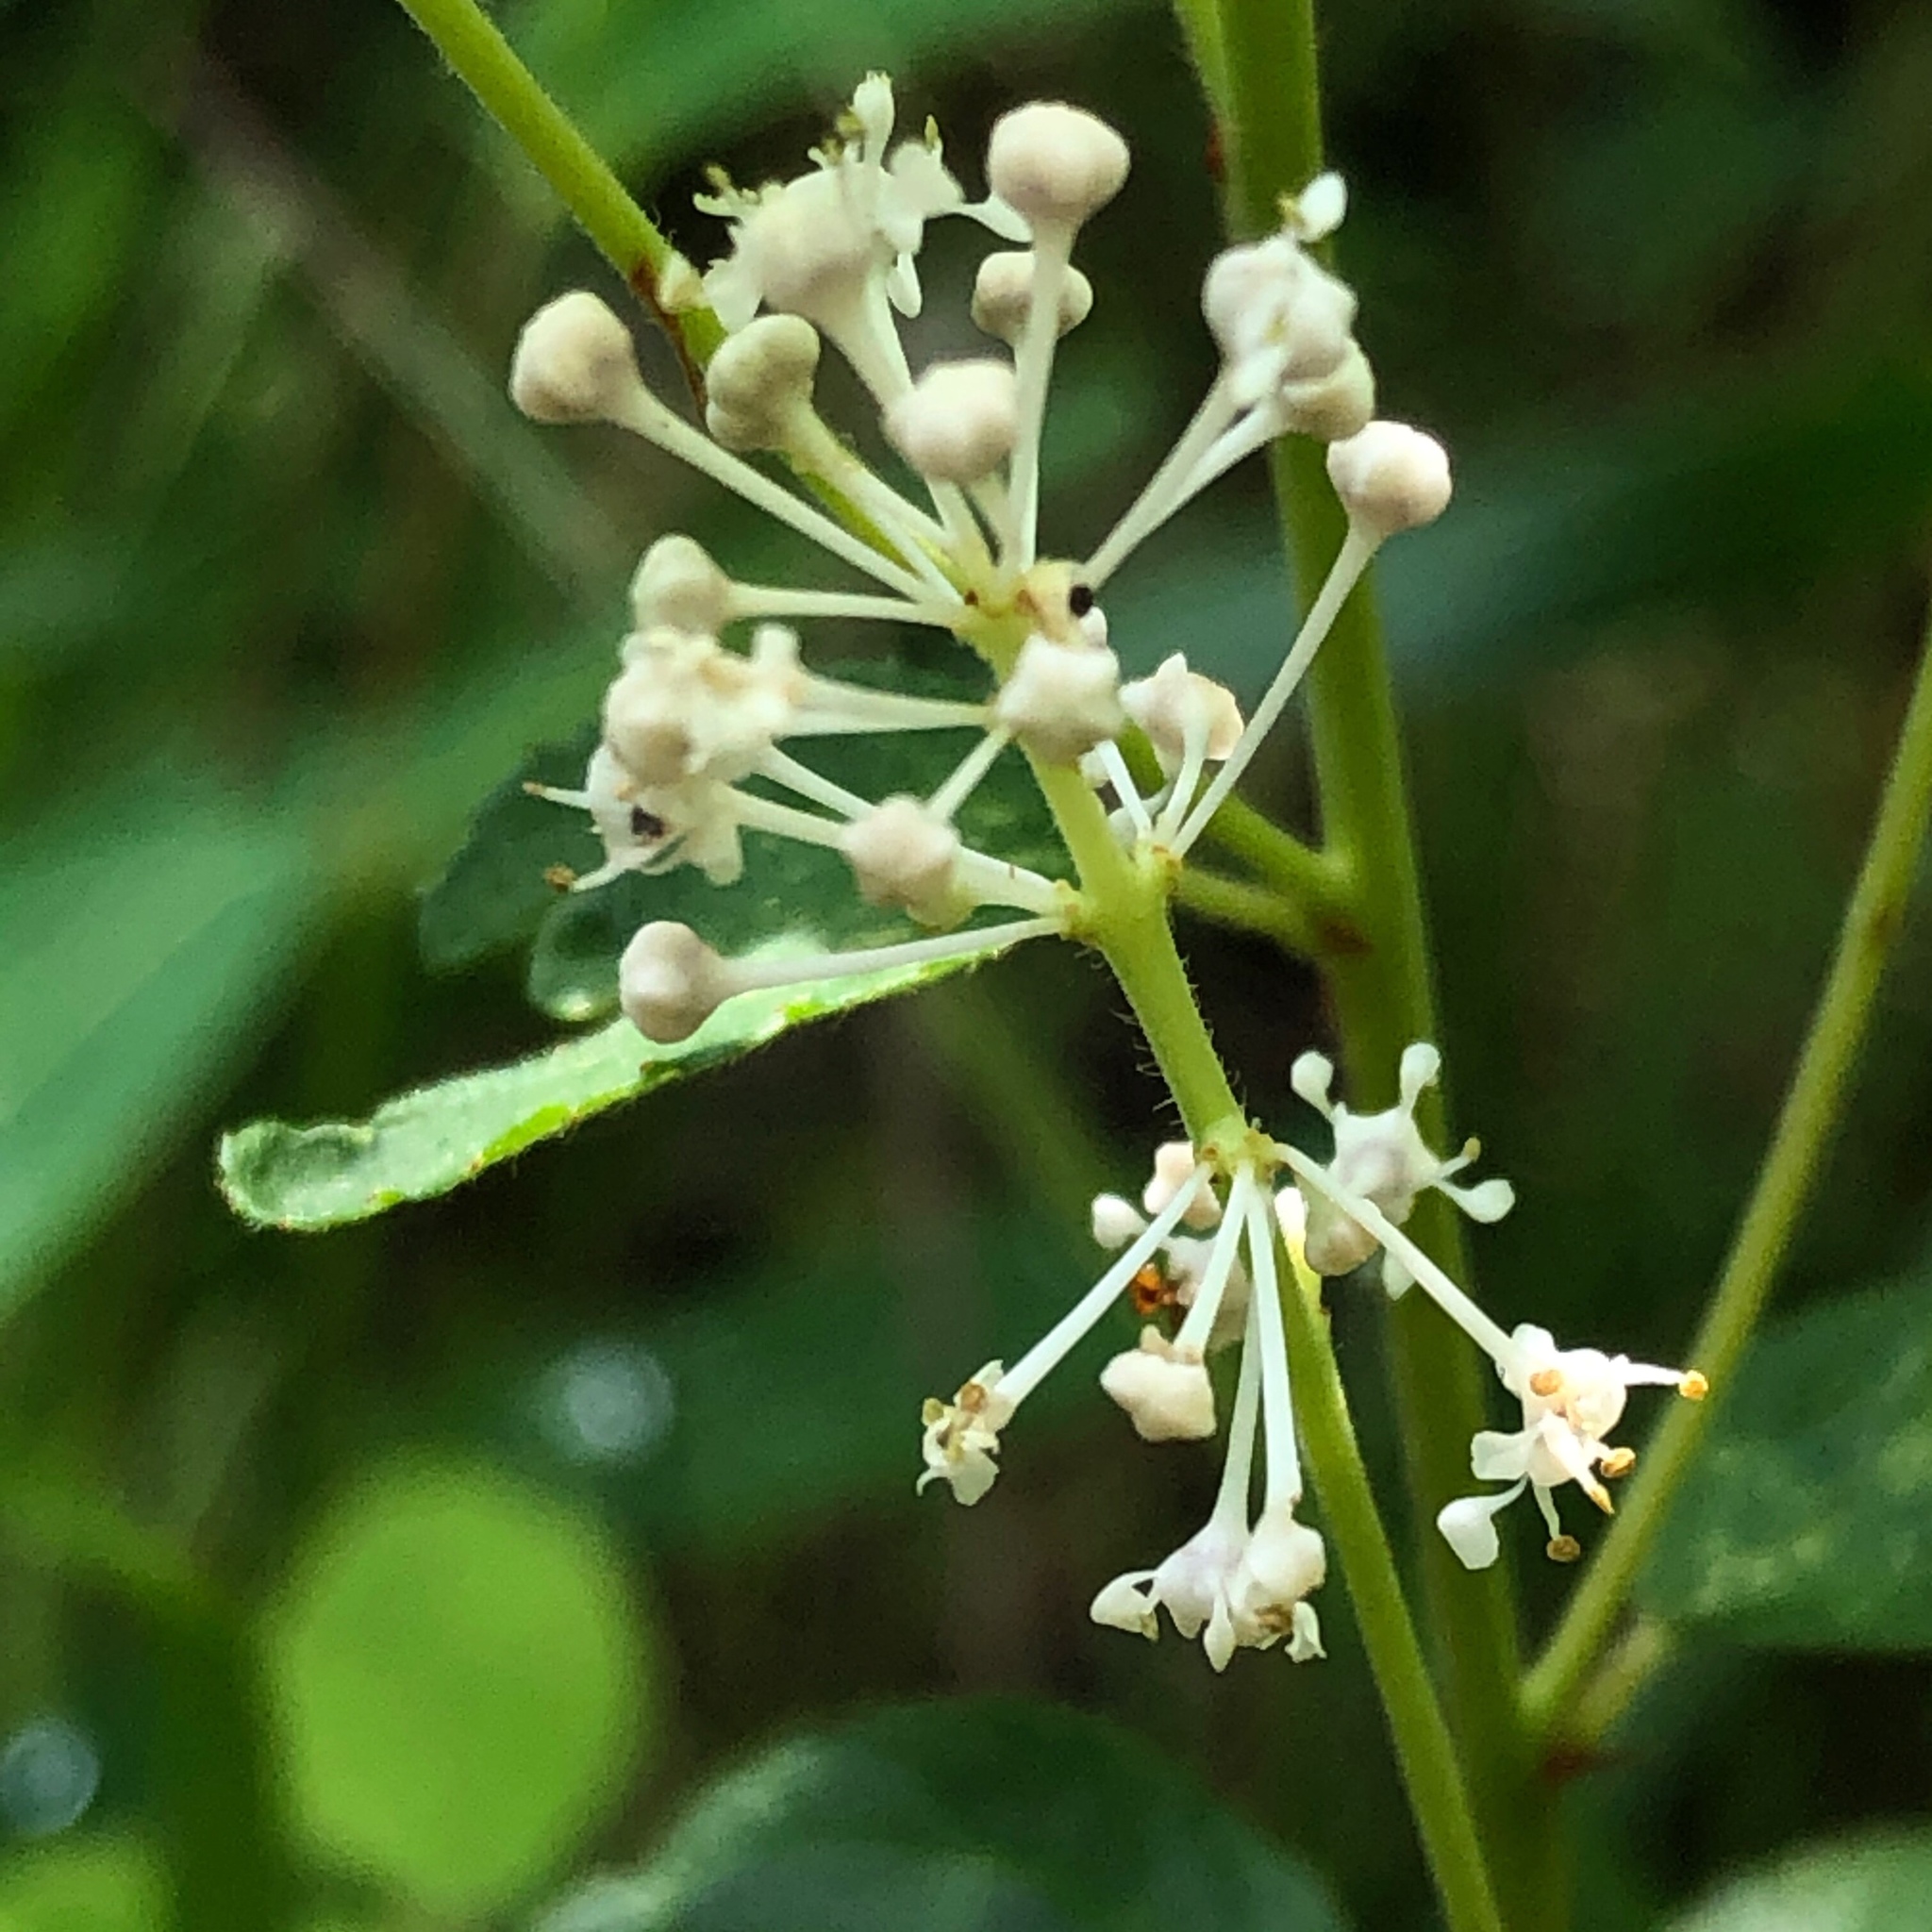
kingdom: Plantae
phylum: Tracheophyta
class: Magnoliopsida
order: Rosales
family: Rhamnaceae
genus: Ceanothus
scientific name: Ceanothus americanus
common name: Redroot
